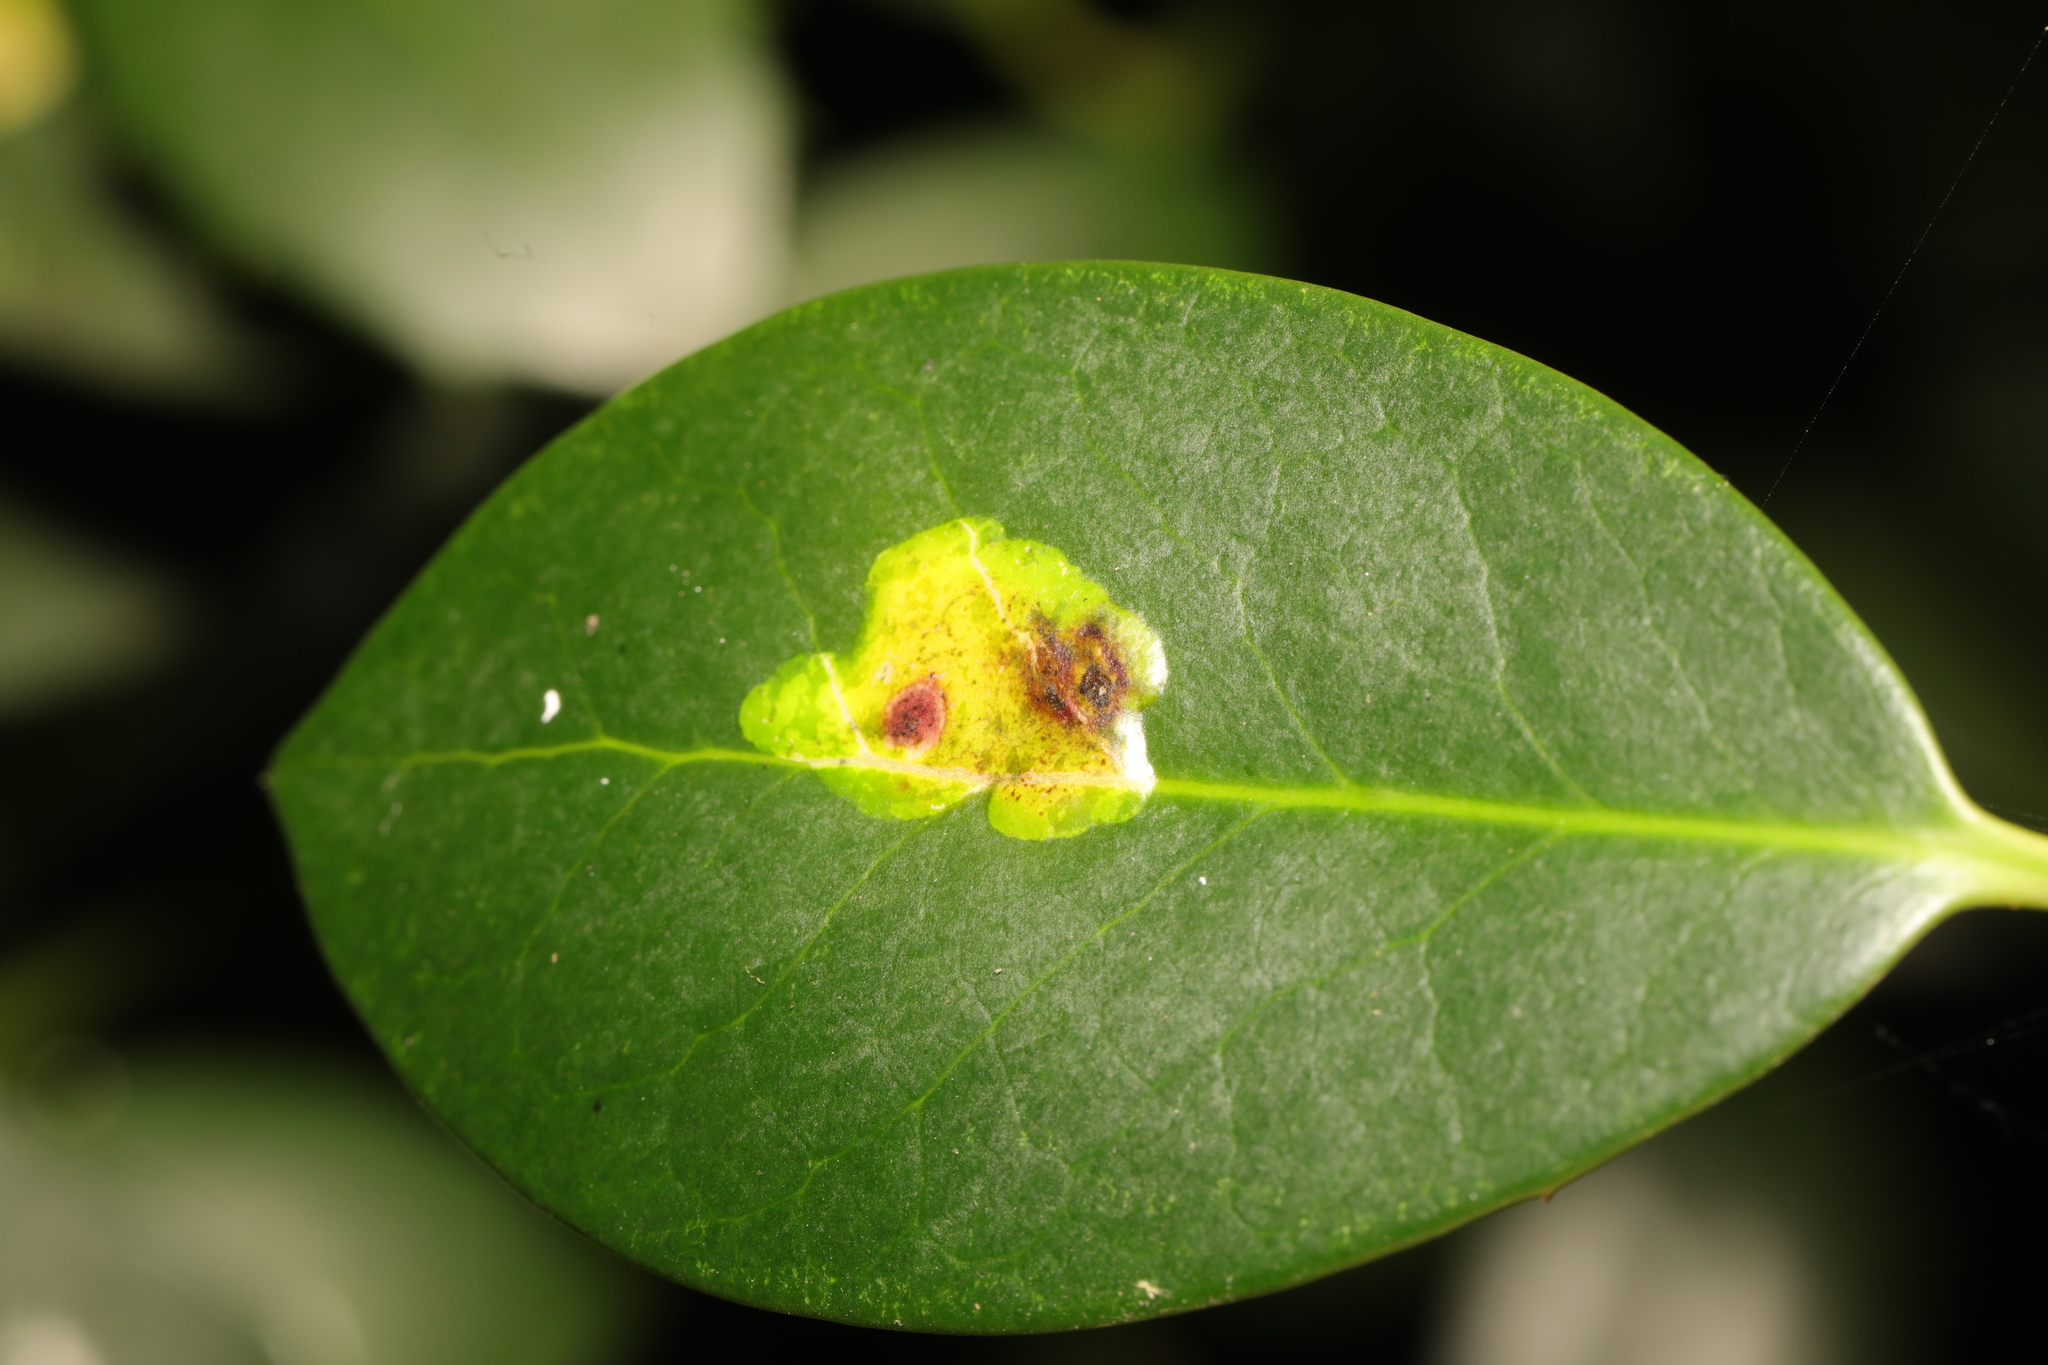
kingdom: Animalia
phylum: Arthropoda
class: Insecta
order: Diptera
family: Agromyzidae
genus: Phytomyza
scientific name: Phytomyza ilicis
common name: Holly leafminer
